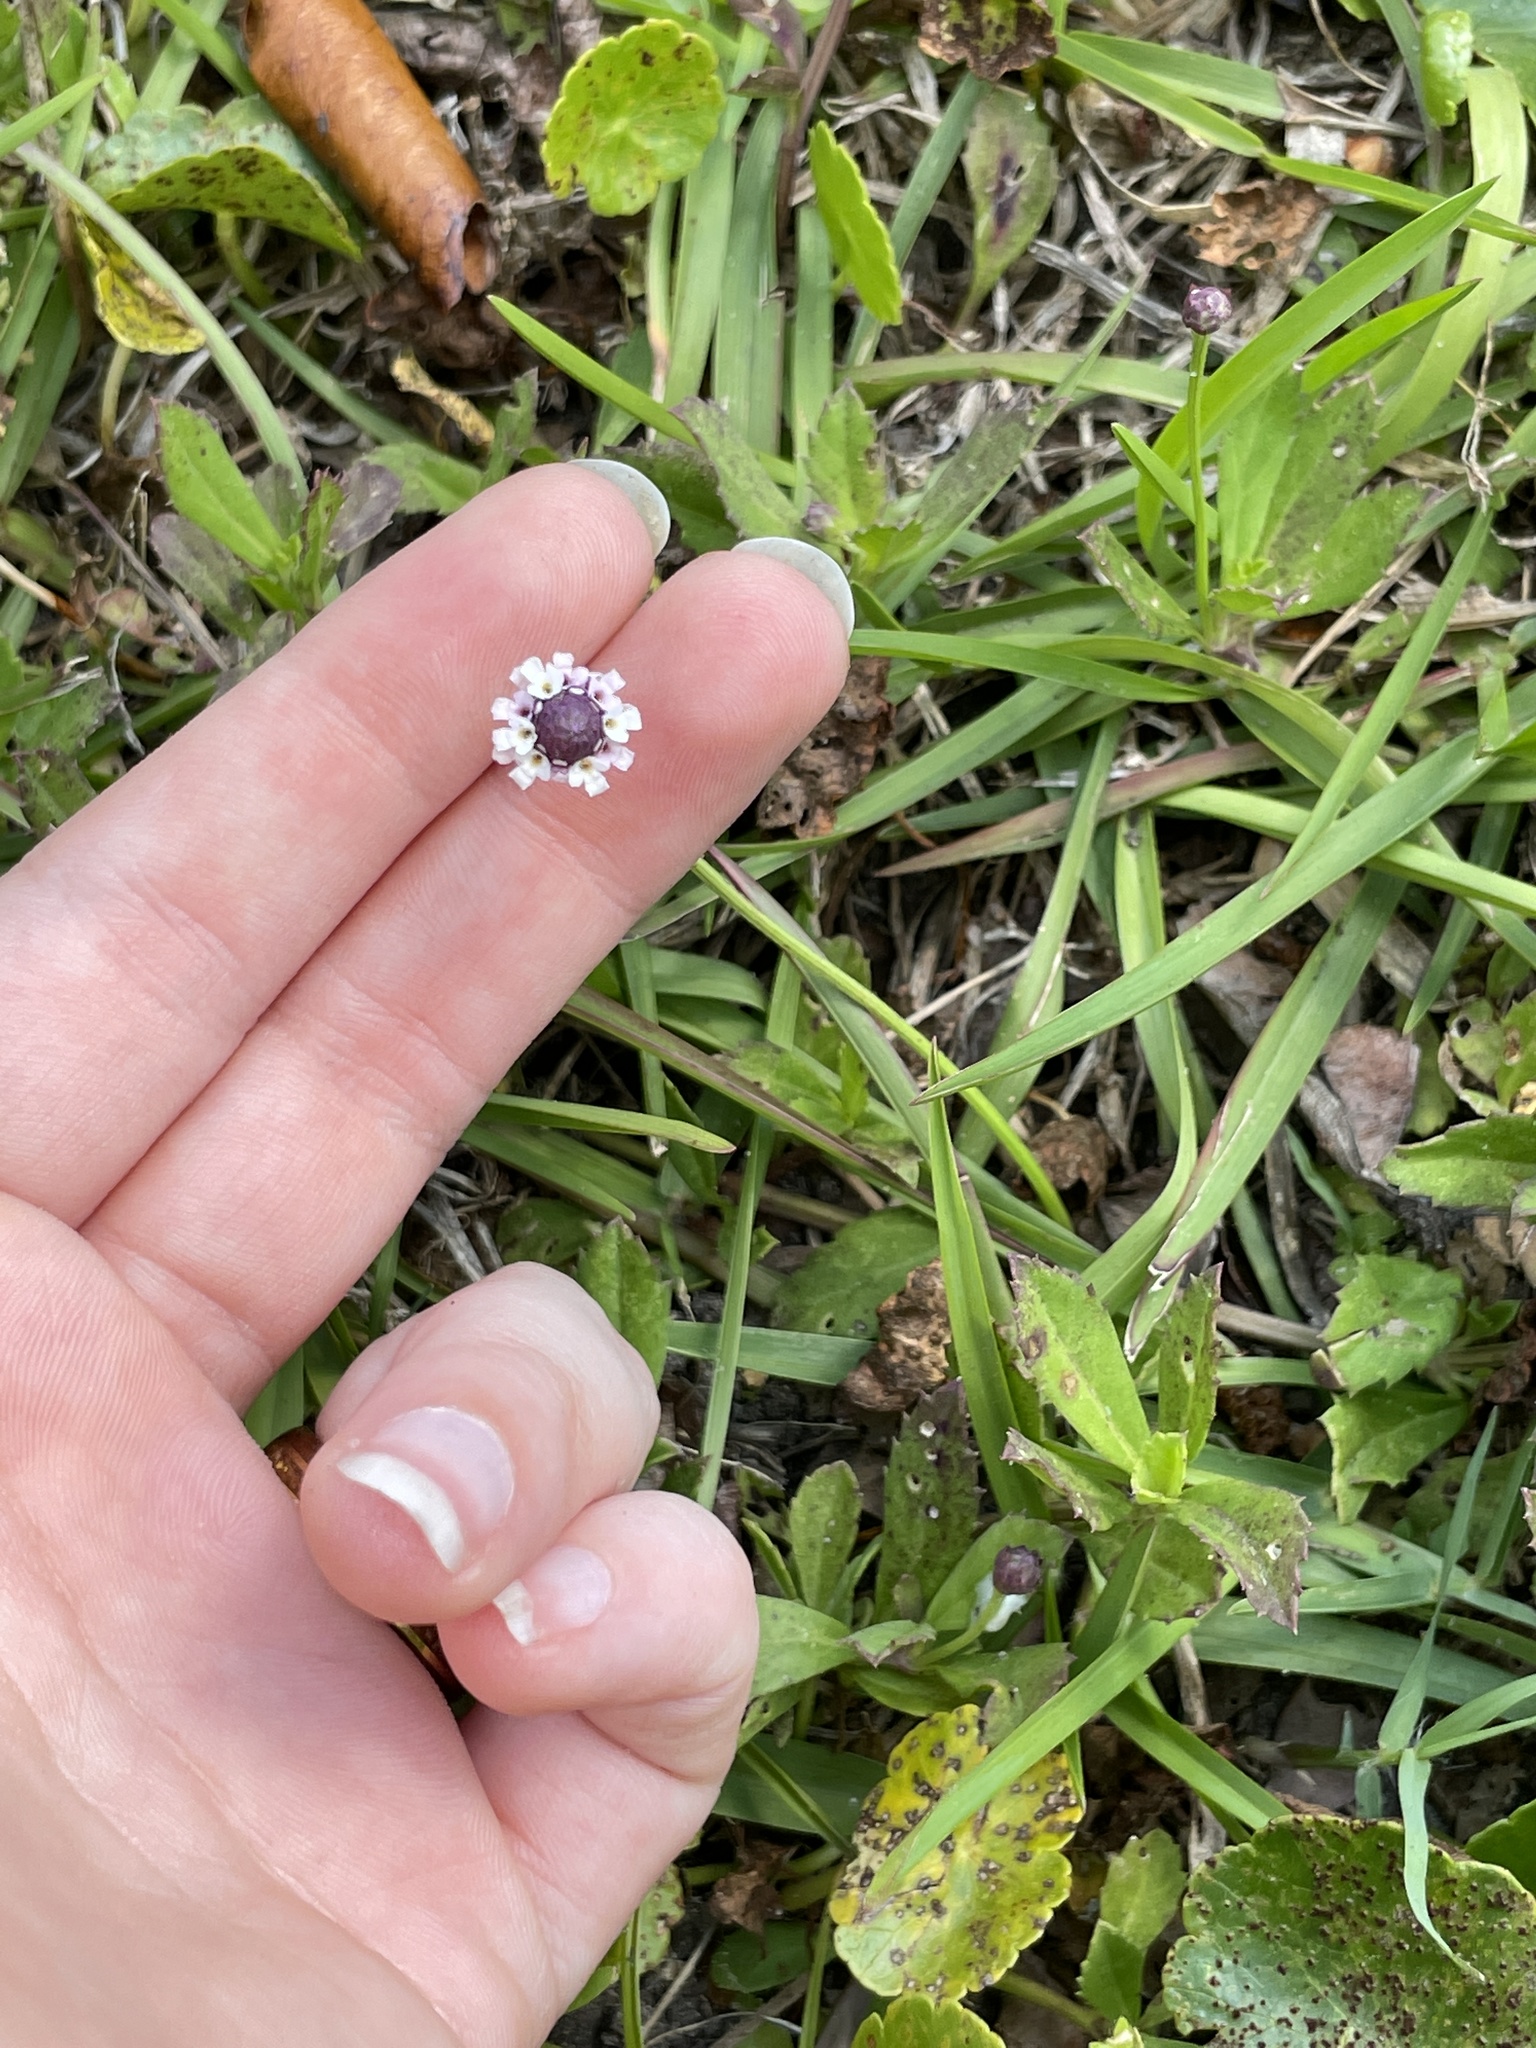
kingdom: Plantae
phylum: Tracheophyta
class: Magnoliopsida
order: Lamiales
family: Verbenaceae
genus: Phyla
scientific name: Phyla nodiflora
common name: Frogfruit
